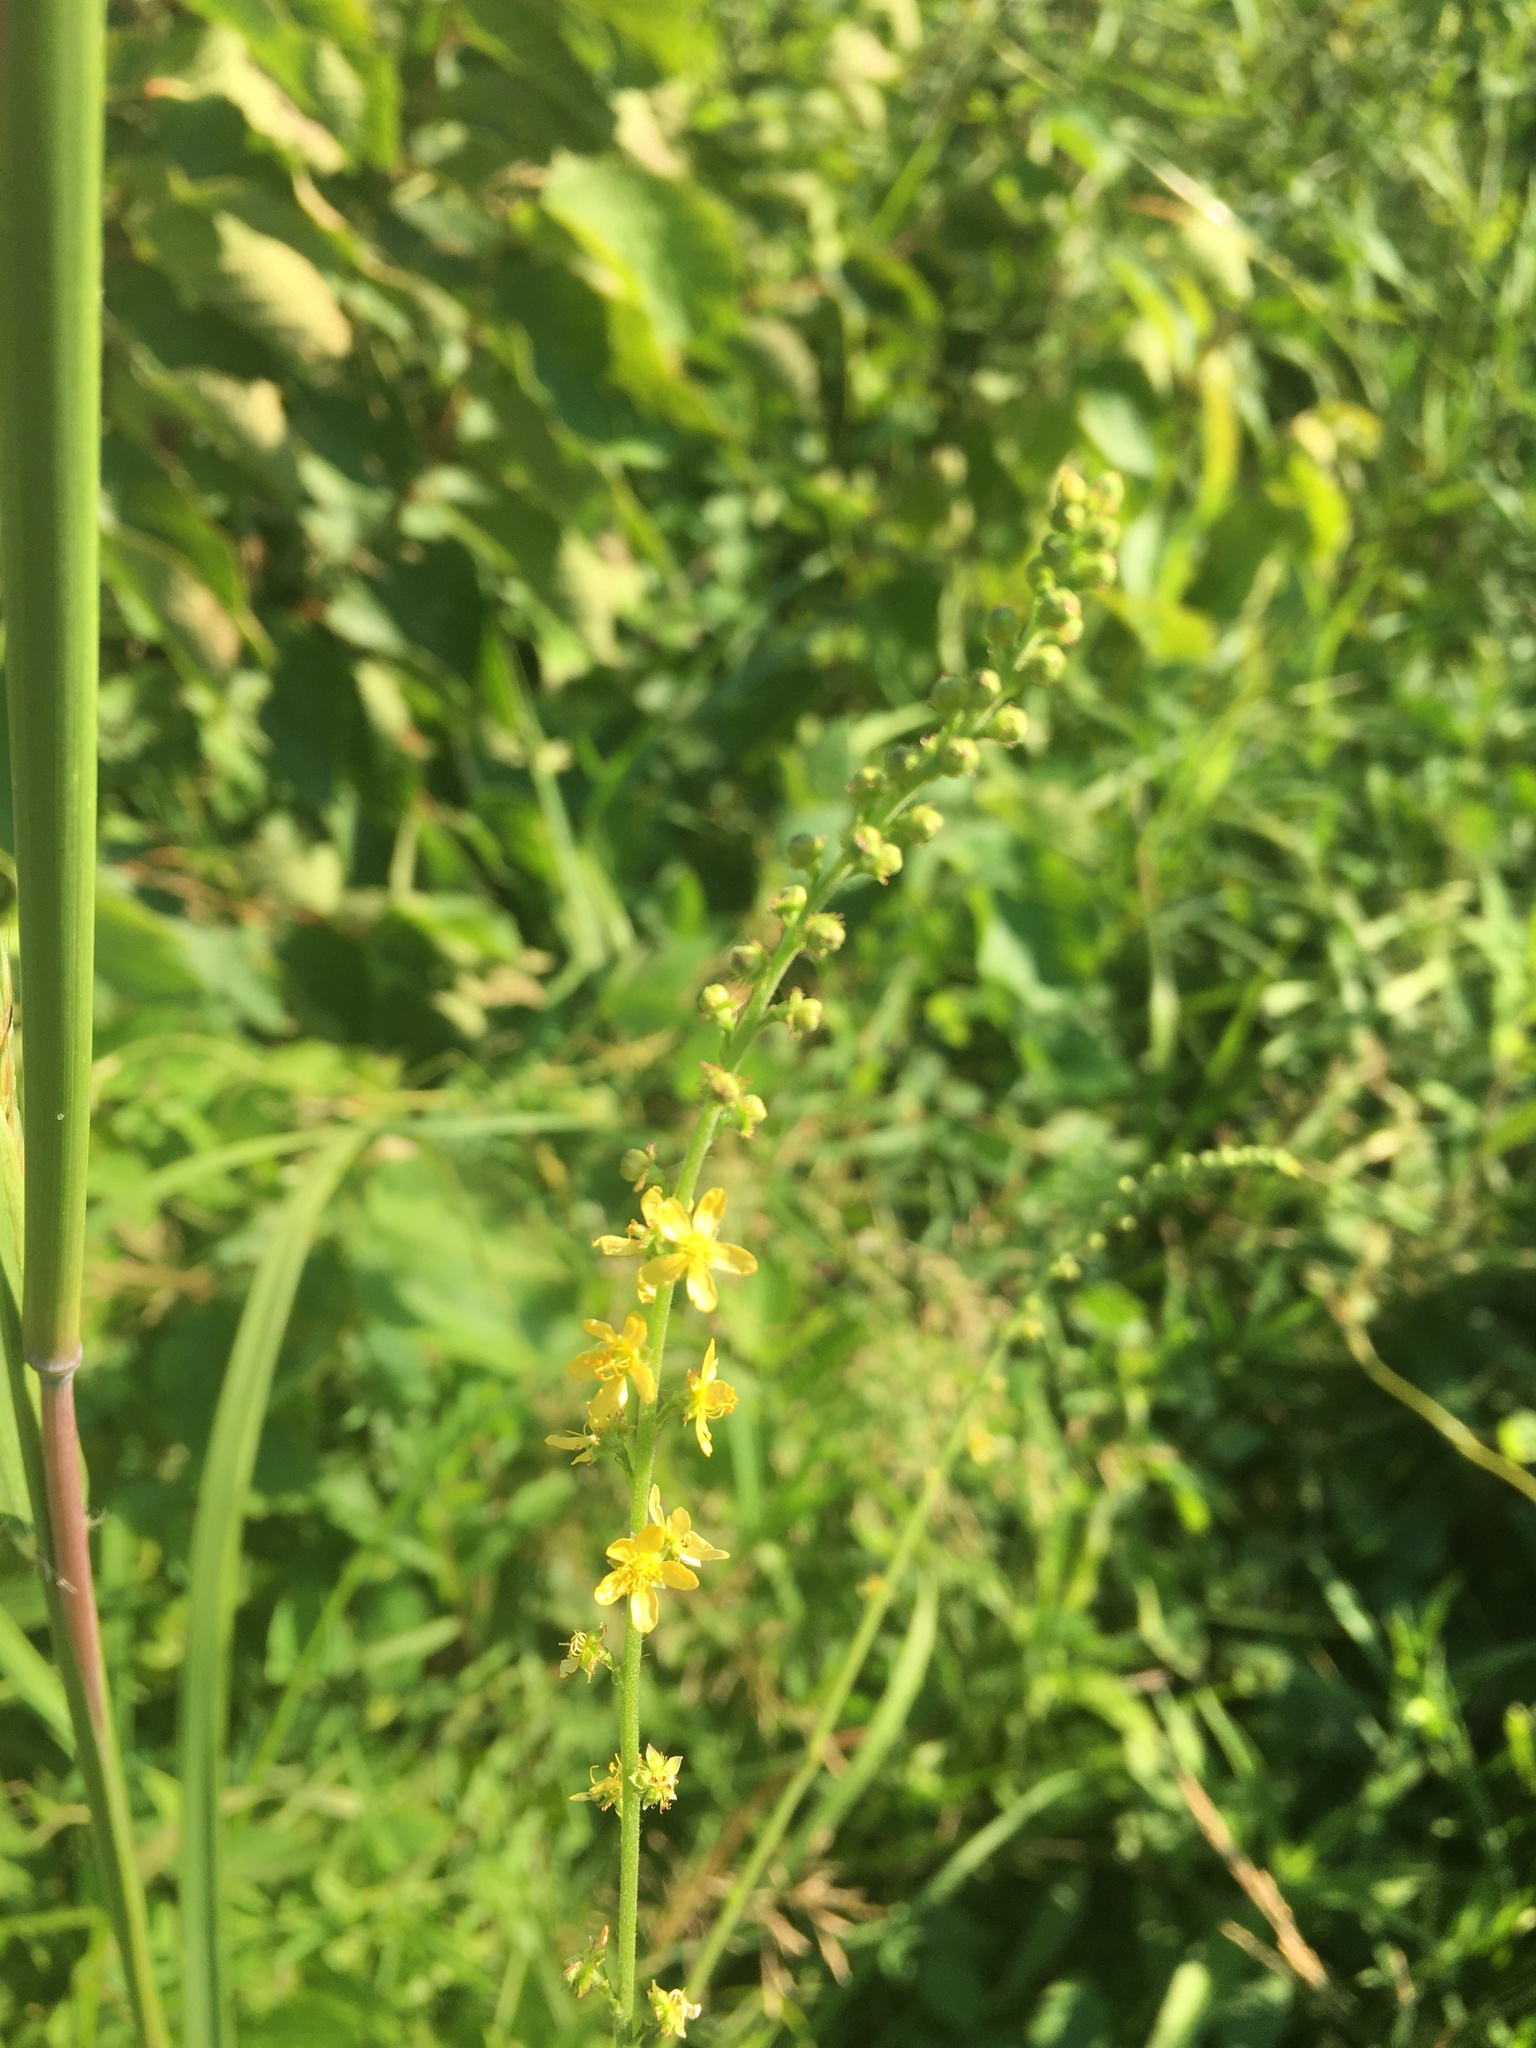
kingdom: Plantae
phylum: Tracheophyta
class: Magnoliopsida
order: Rosales
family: Rosaceae
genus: Agrimonia
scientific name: Agrimonia parviflora
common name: Harvest-lice
